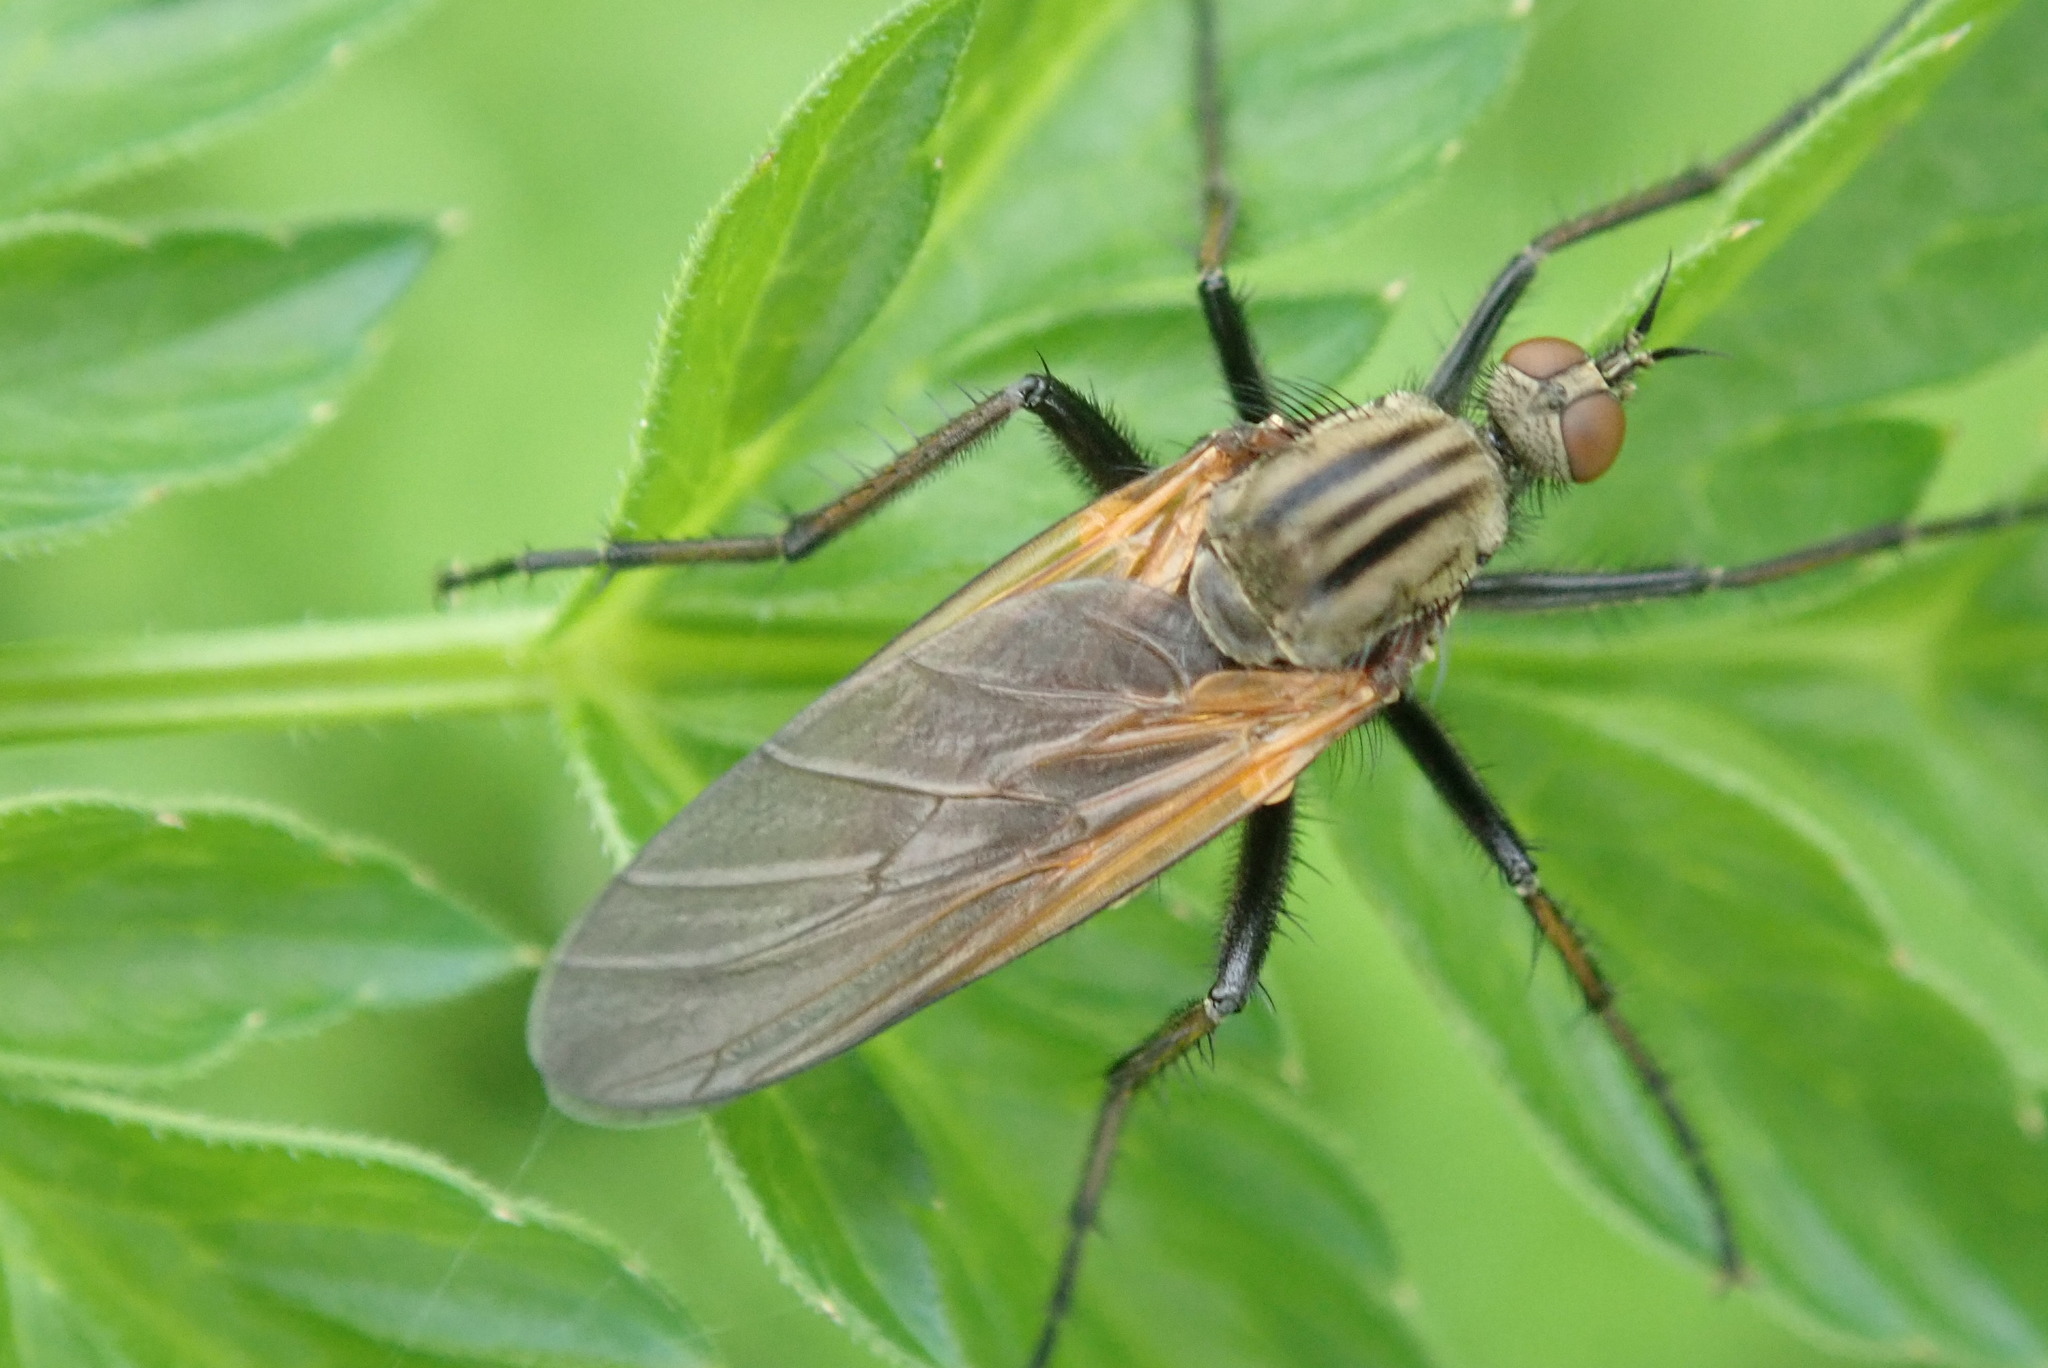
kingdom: Animalia
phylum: Arthropoda
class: Insecta
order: Diptera
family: Empididae
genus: Empis
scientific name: Empis tessellata
